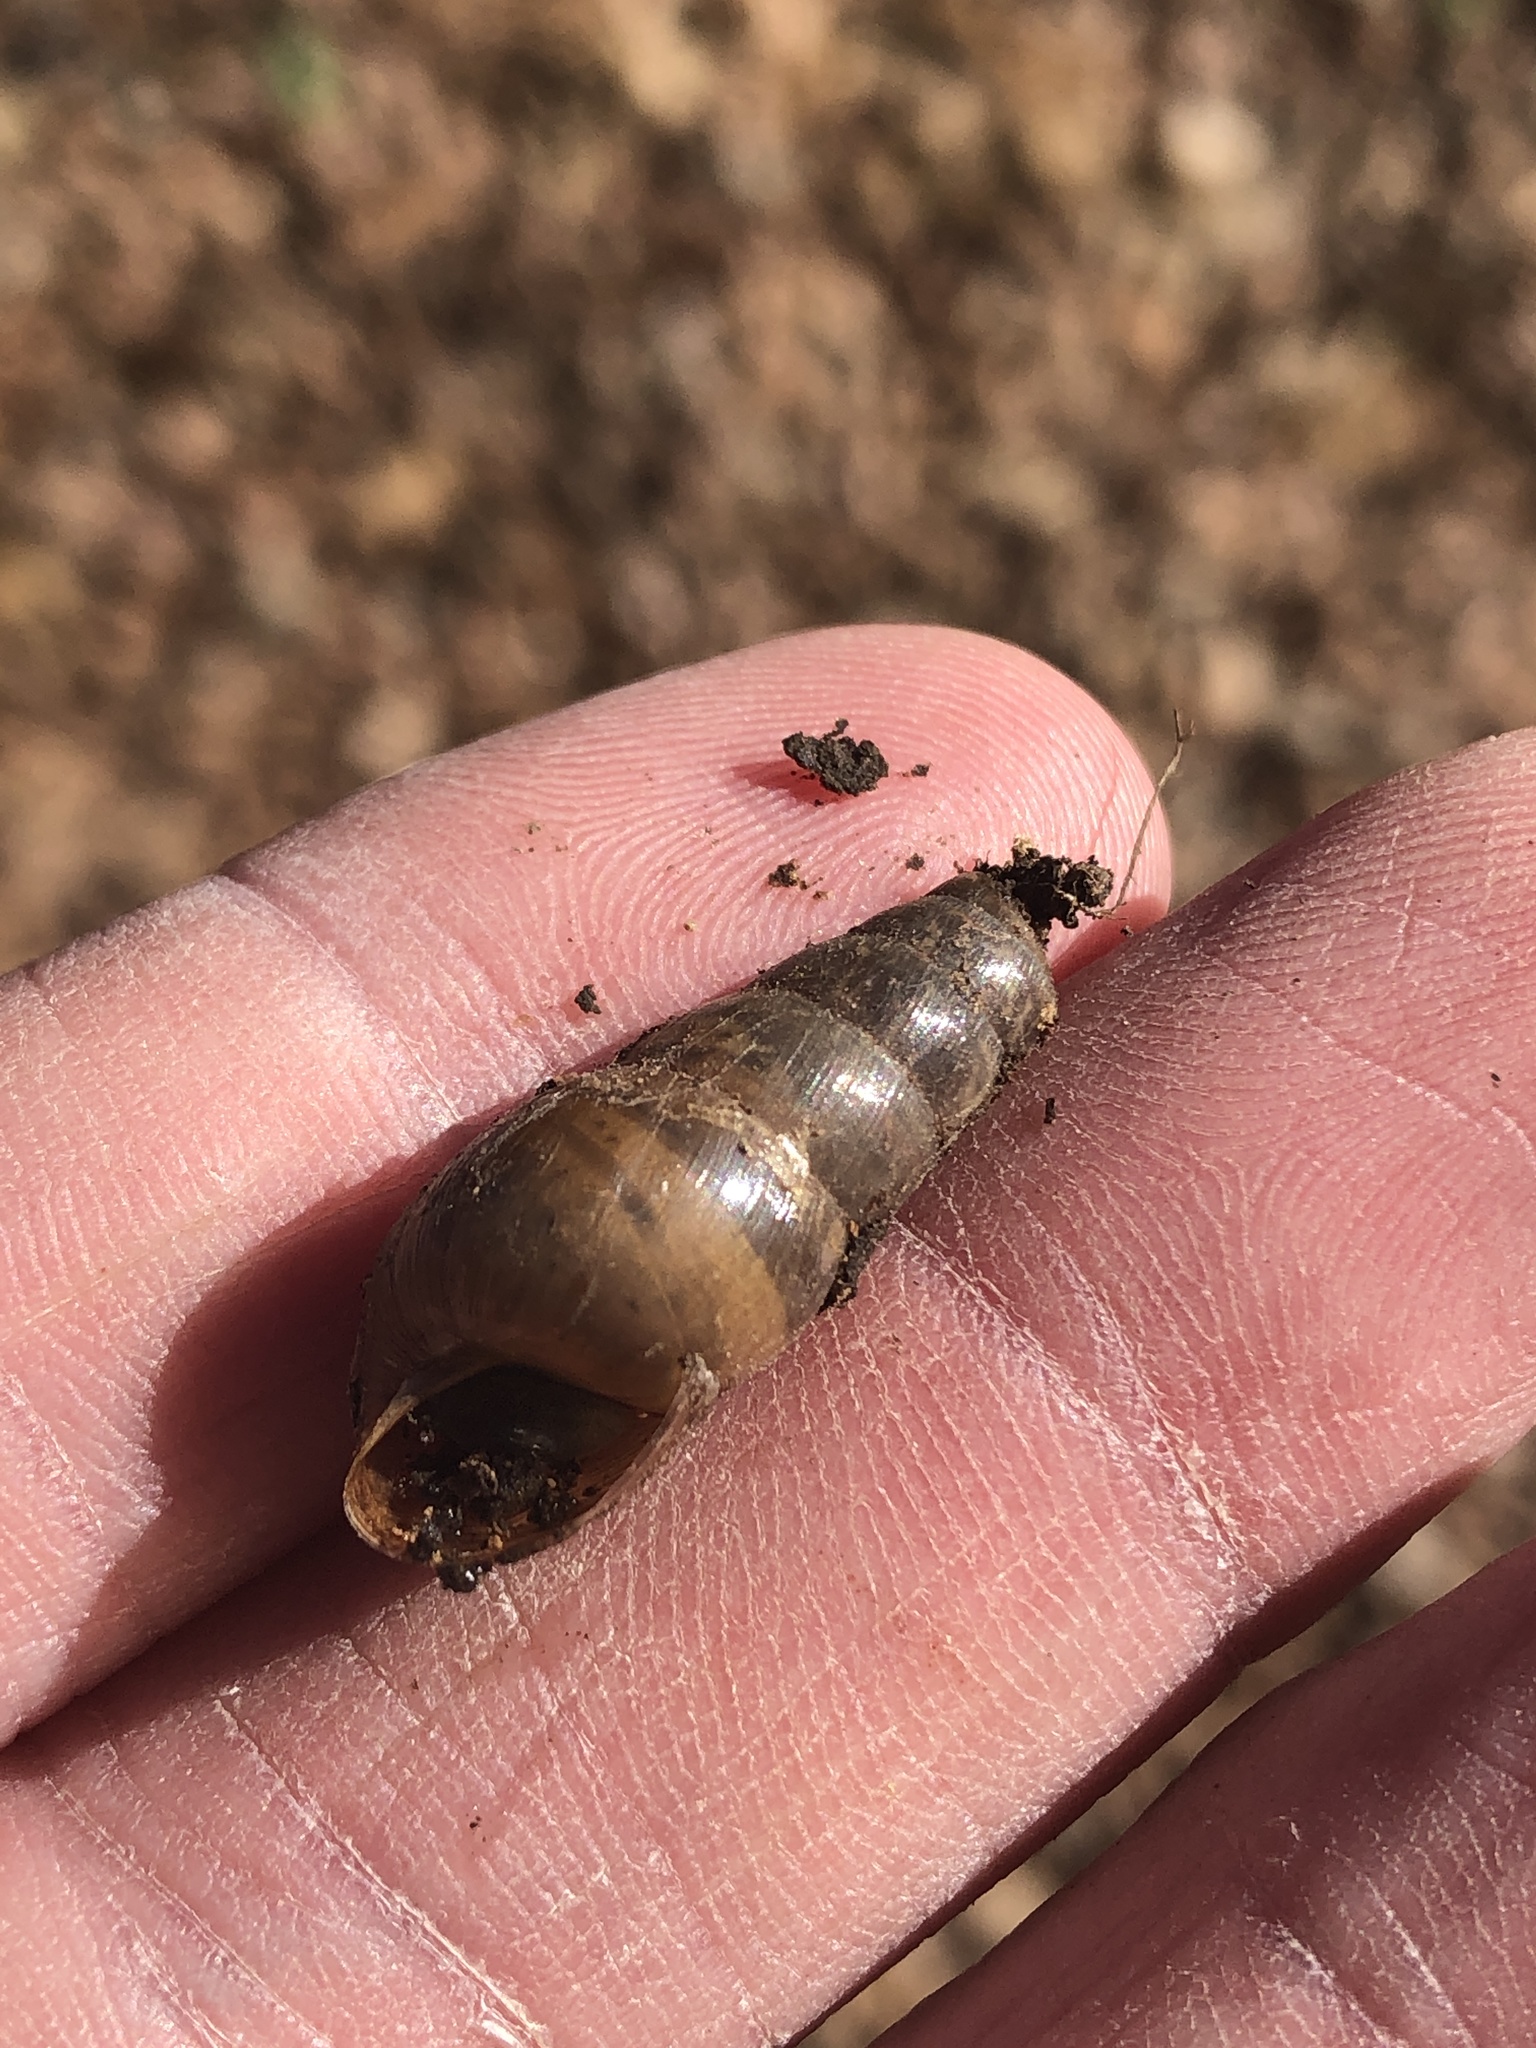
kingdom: Animalia
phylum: Mollusca
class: Gastropoda
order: Stylommatophora
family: Achatinidae
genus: Rumina
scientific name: Rumina decollata
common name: Decollate snail
